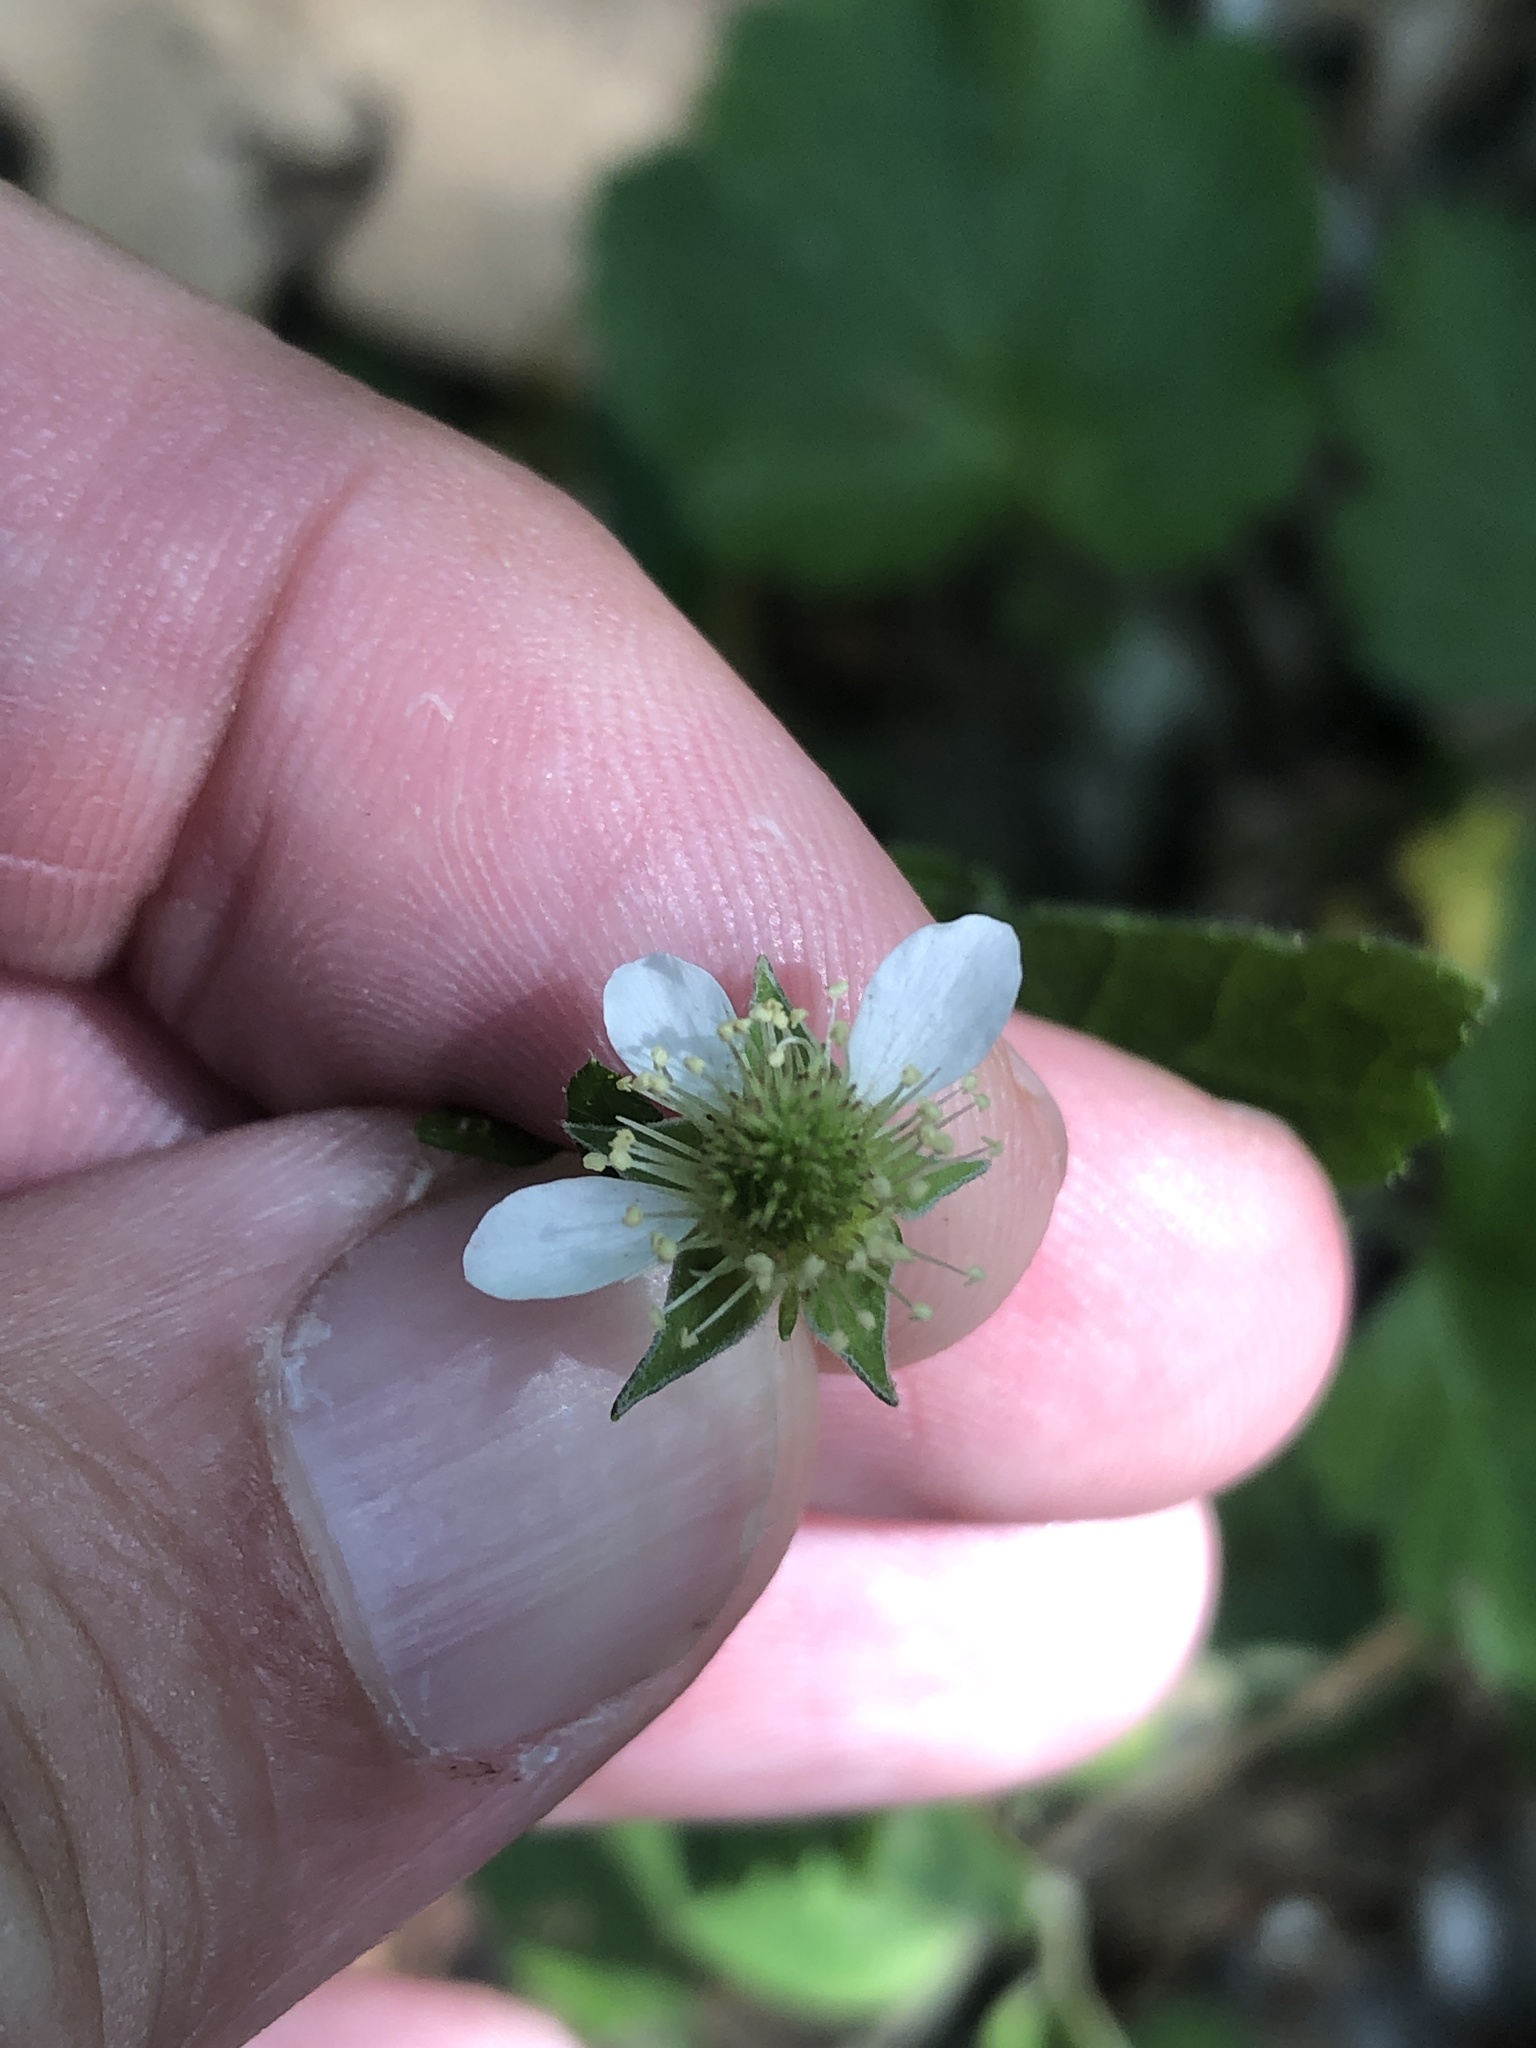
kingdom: Plantae
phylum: Tracheophyta
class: Magnoliopsida
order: Rosales
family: Rosaceae
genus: Geum
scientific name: Geum canadense
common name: White avens
